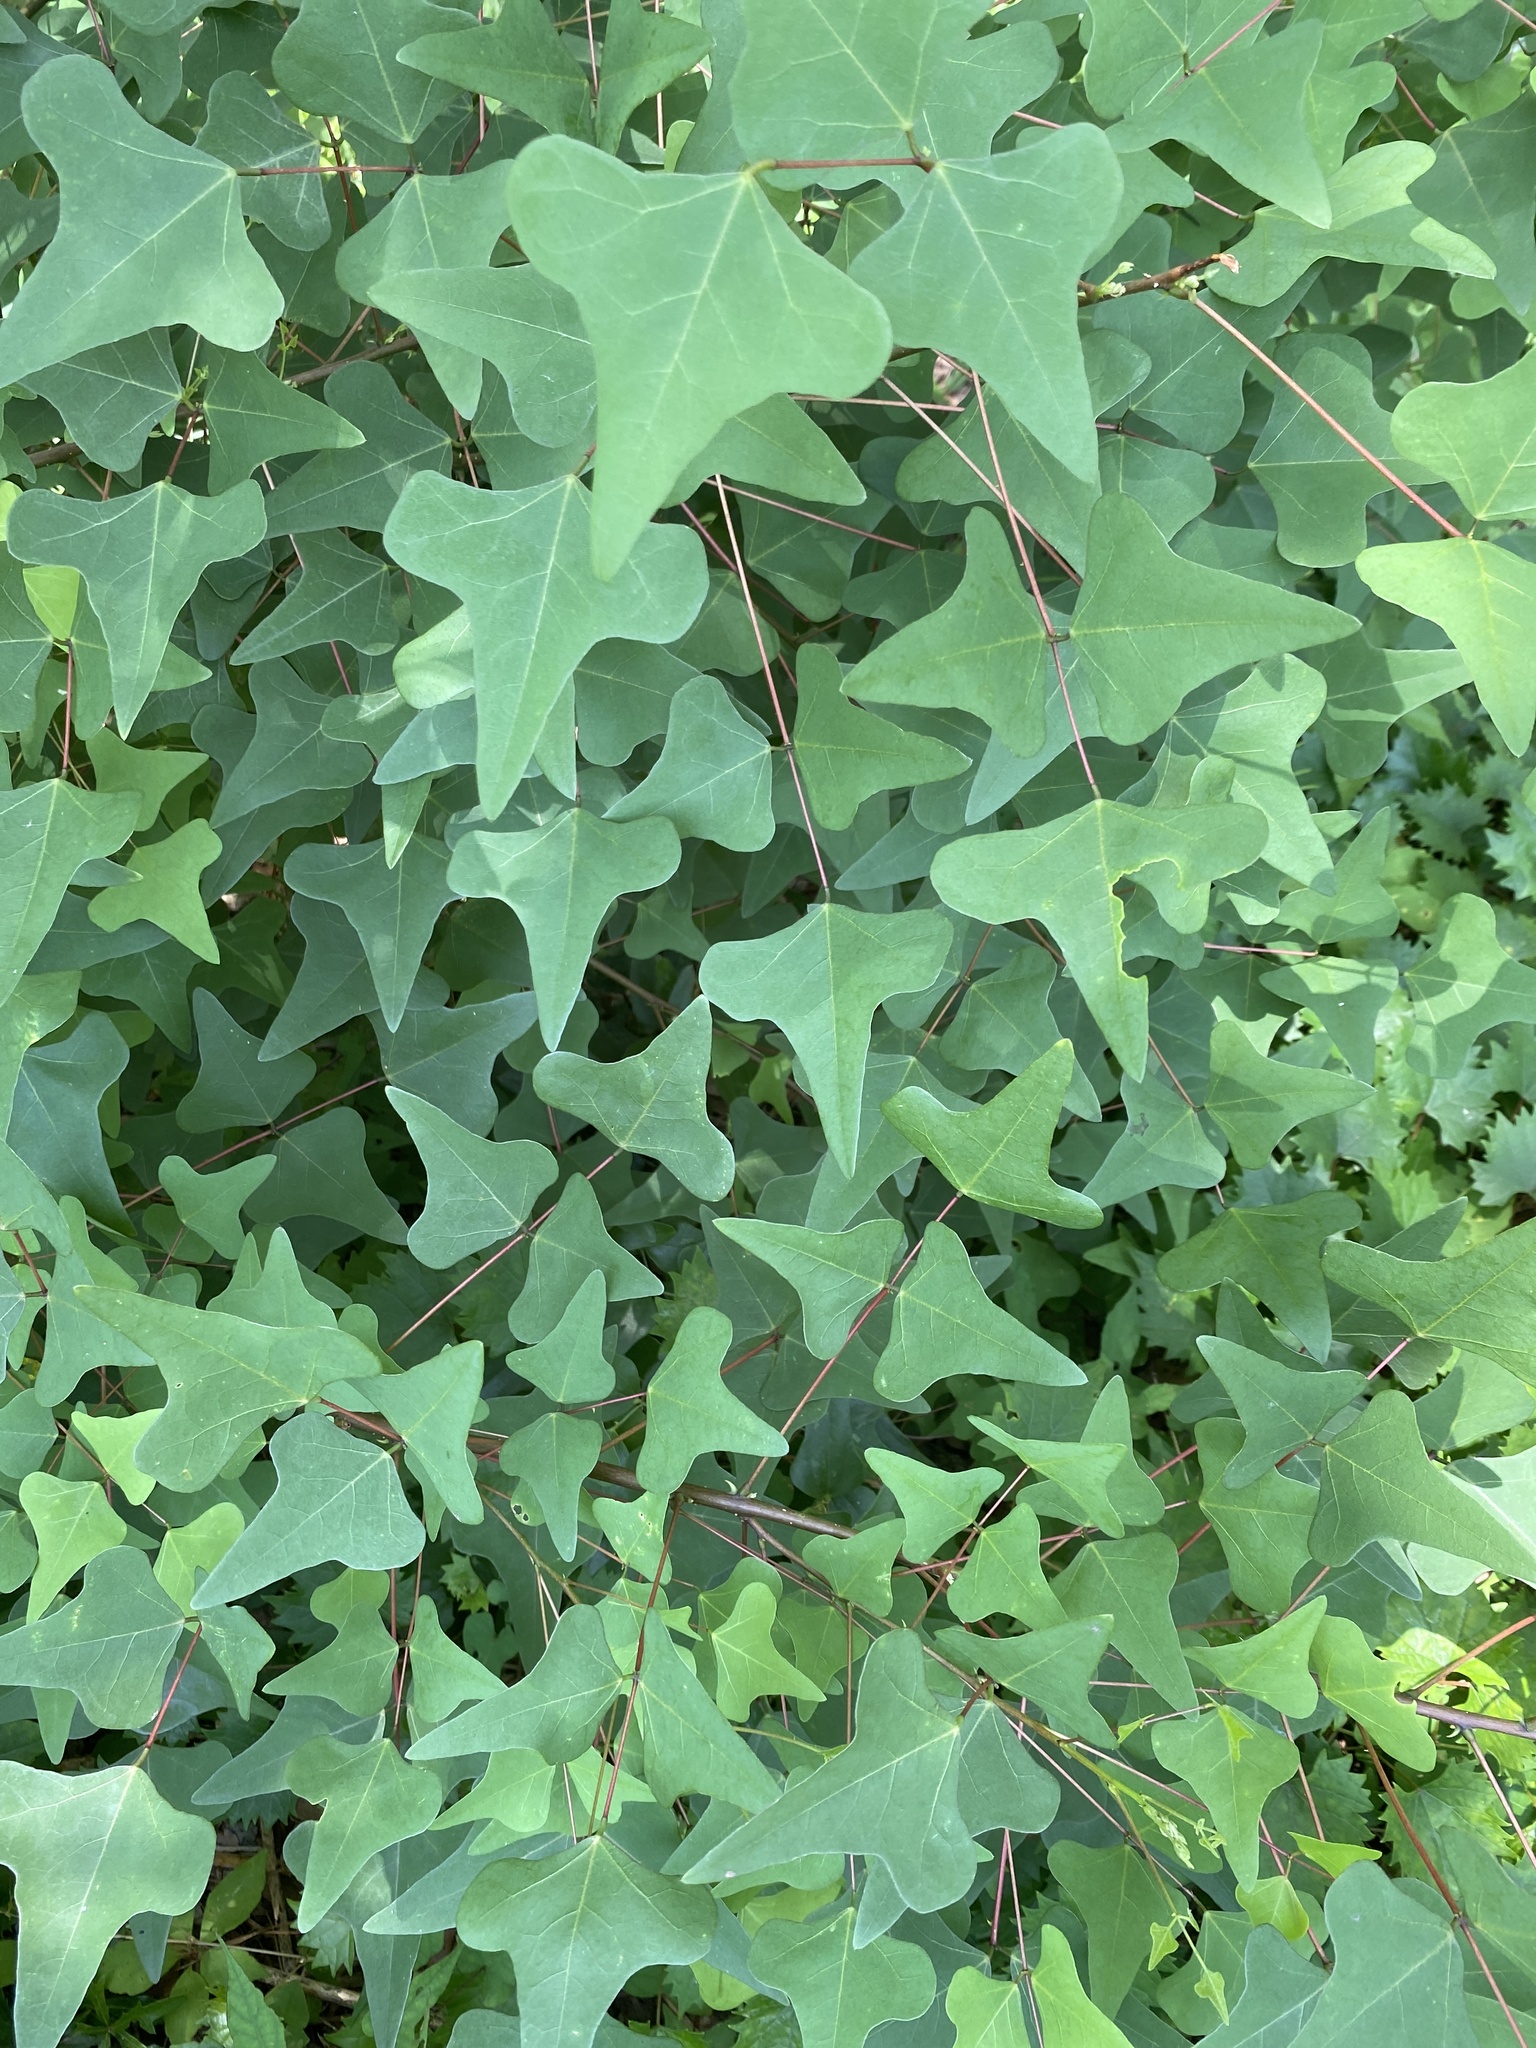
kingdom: Plantae
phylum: Tracheophyta
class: Magnoliopsida
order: Fabales
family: Fabaceae
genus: Erythrina
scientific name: Erythrina herbacea
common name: Coral-bean
